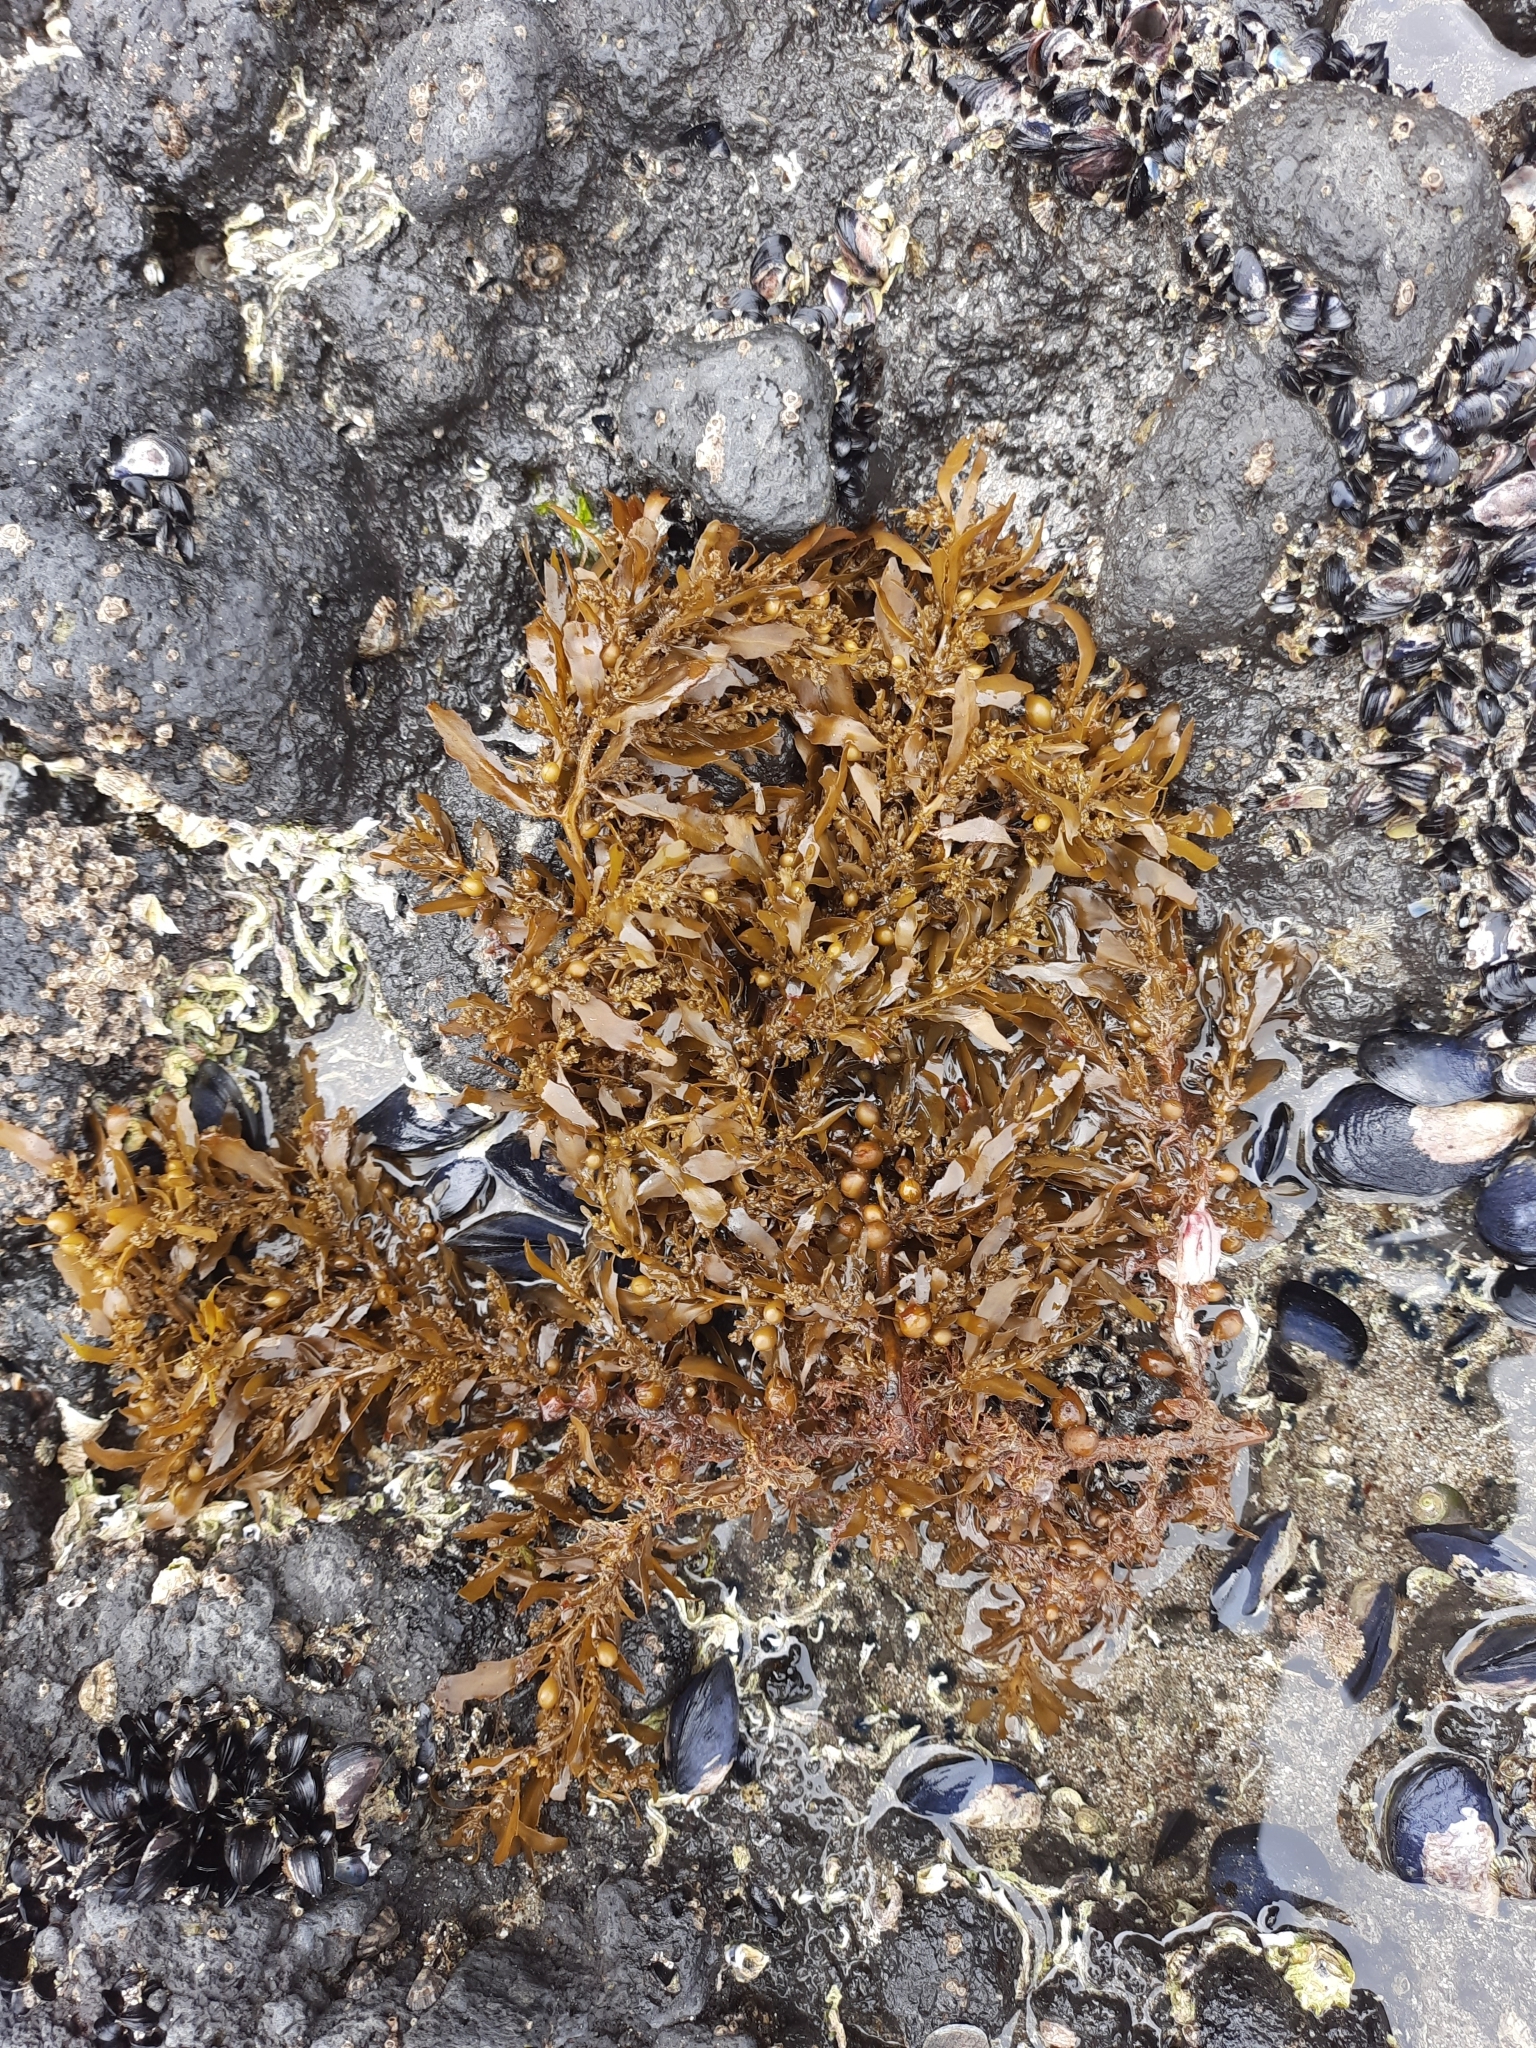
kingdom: Chromista
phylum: Ochrophyta
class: Phaeophyceae
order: Fucales
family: Sargassaceae
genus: Sargassum
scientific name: Sargassum sinclairii
